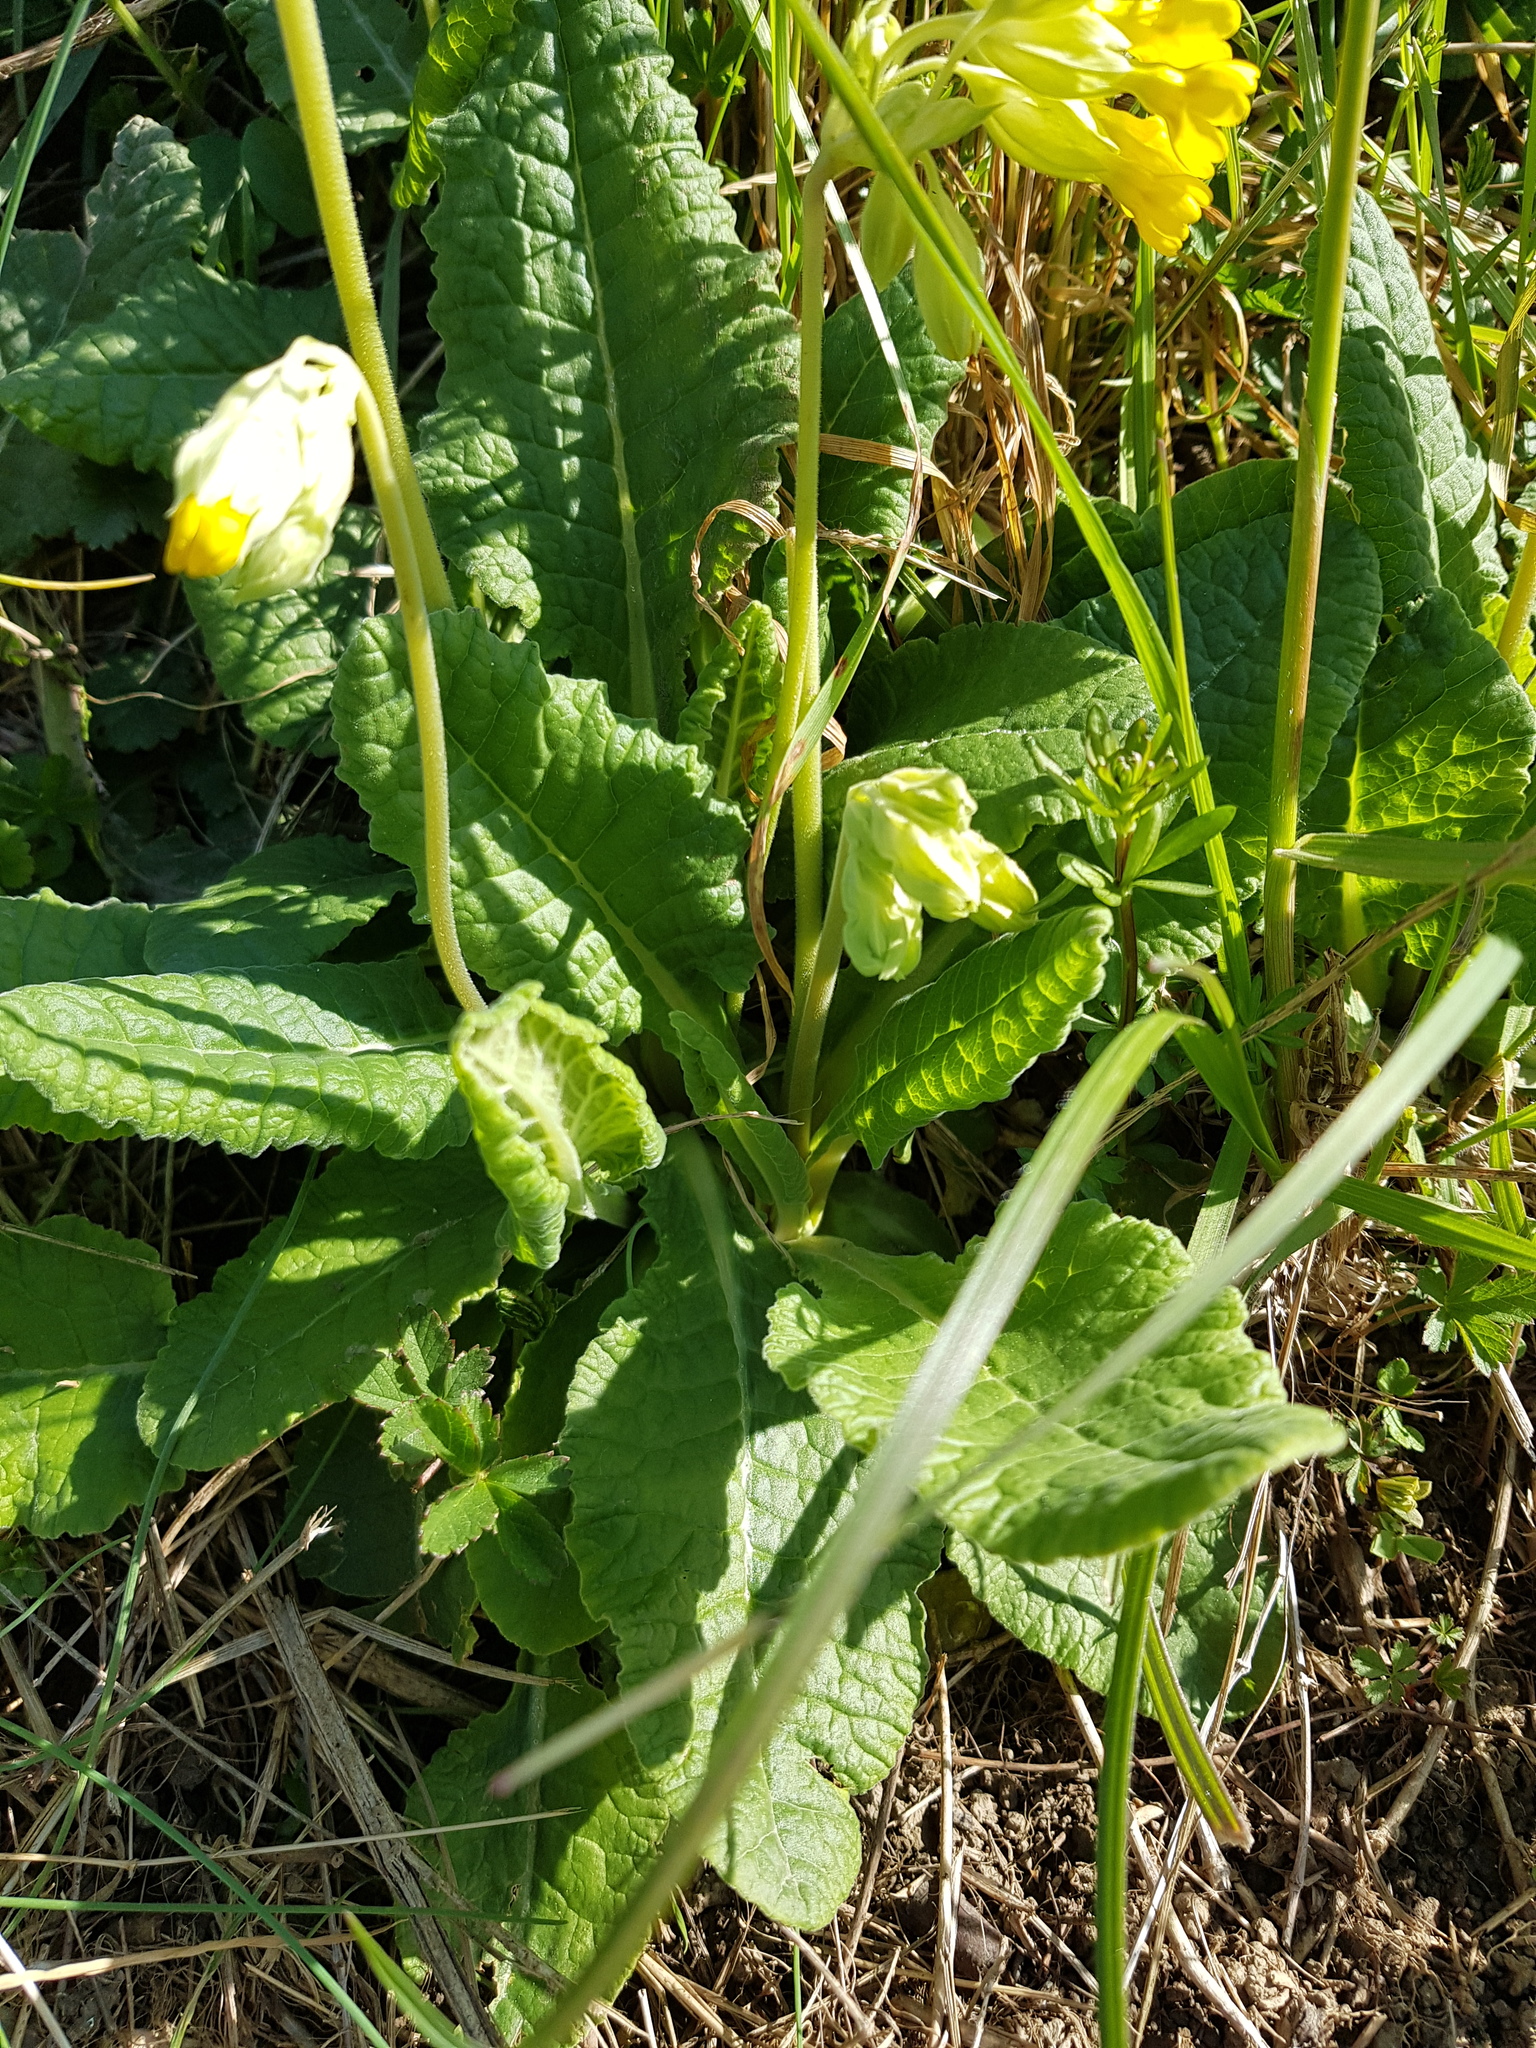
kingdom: Plantae
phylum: Tracheophyta
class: Magnoliopsida
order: Ericales
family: Primulaceae
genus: Primula
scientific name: Primula veris
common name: Cowslip
